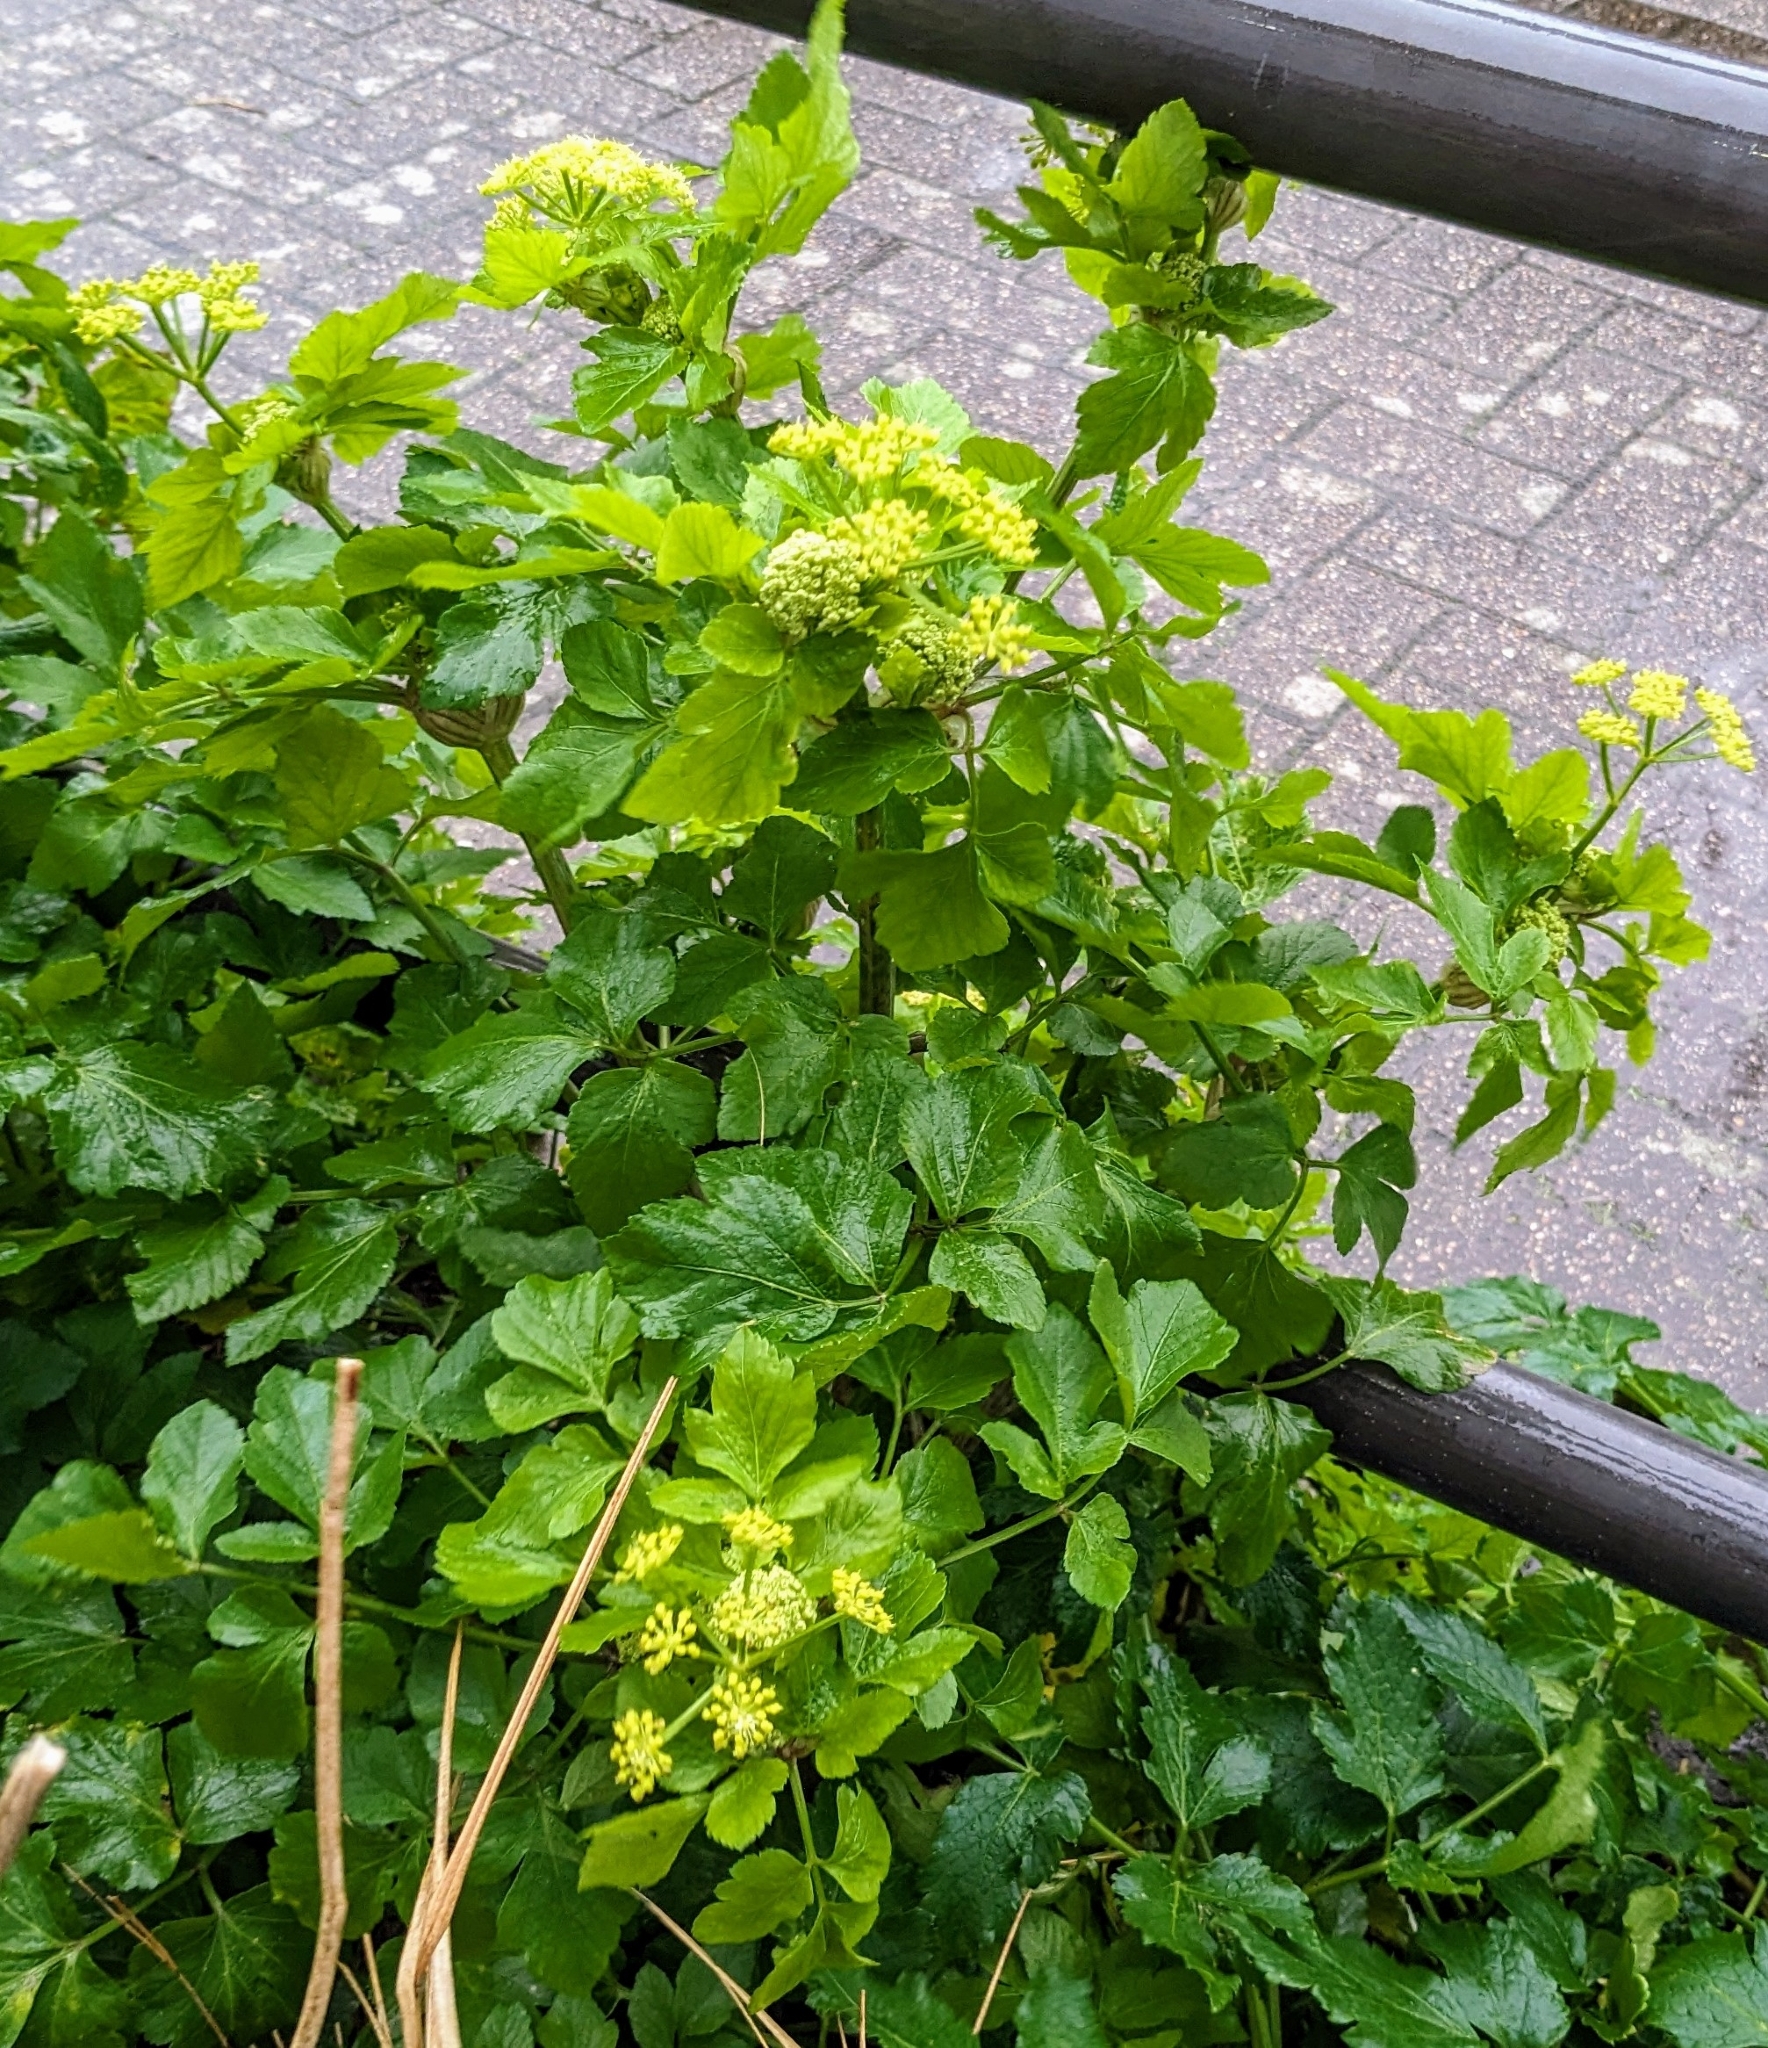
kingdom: Plantae
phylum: Tracheophyta
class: Magnoliopsida
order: Apiales
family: Apiaceae
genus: Smyrnium
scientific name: Smyrnium olusatrum
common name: Alexanders
